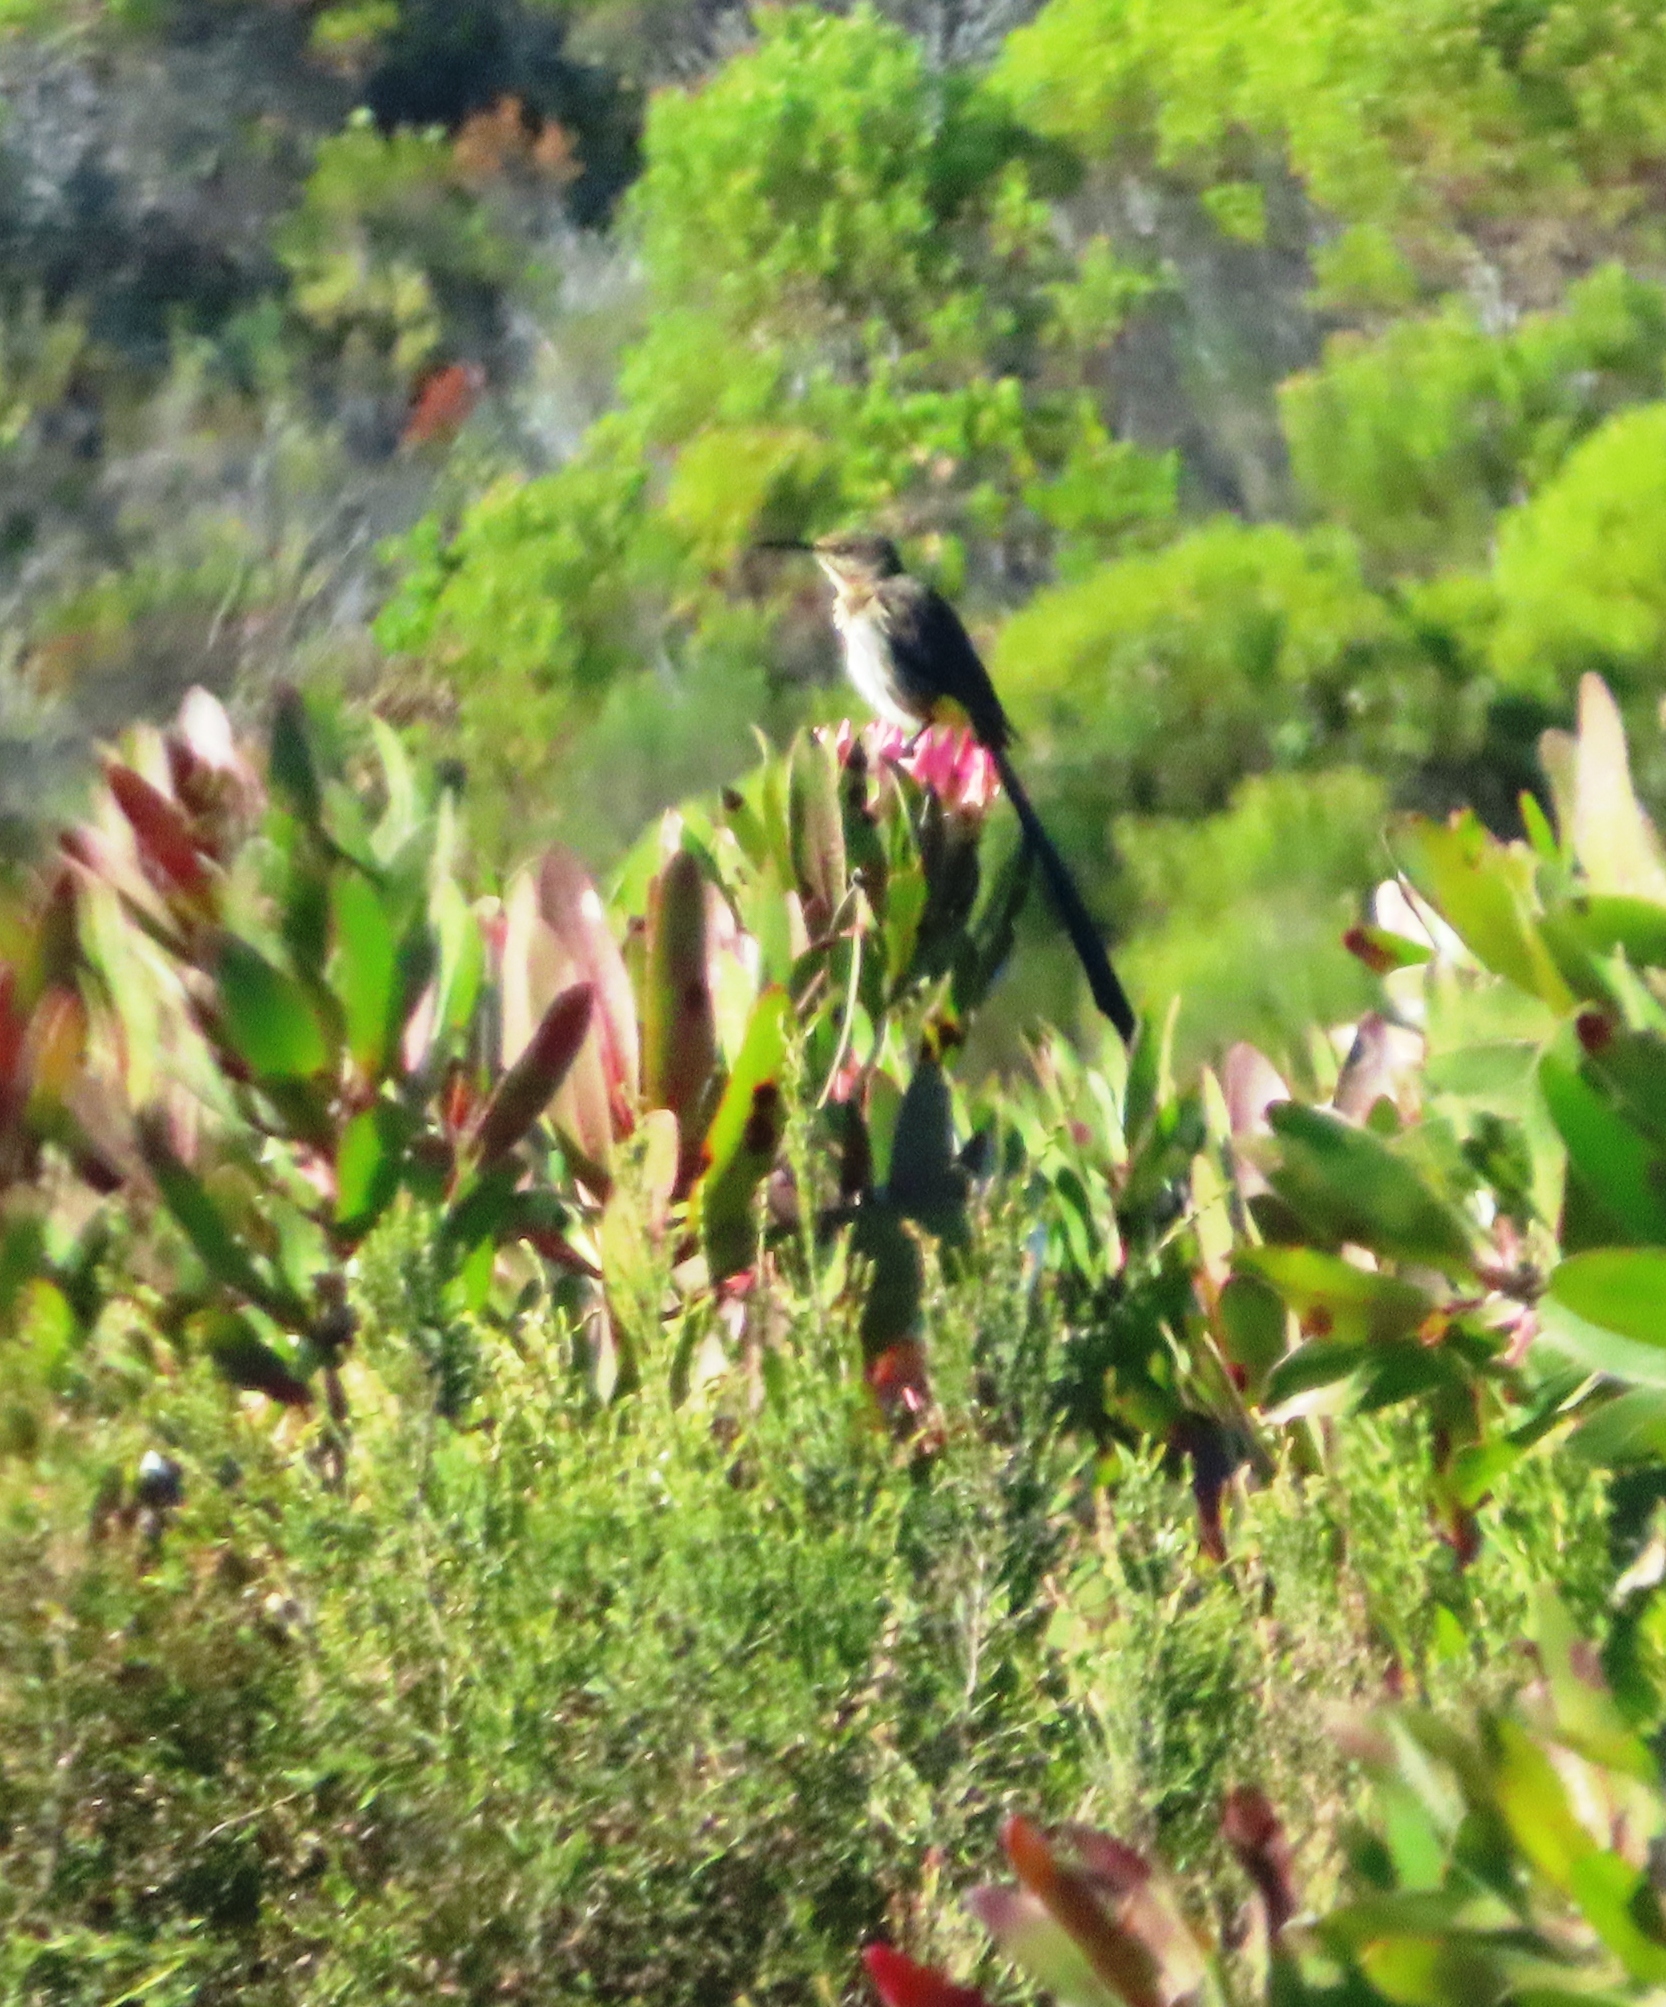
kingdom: Animalia
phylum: Chordata
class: Aves
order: Passeriformes
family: Promeropidae
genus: Promerops
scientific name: Promerops cafer
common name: Cape sugarbird
